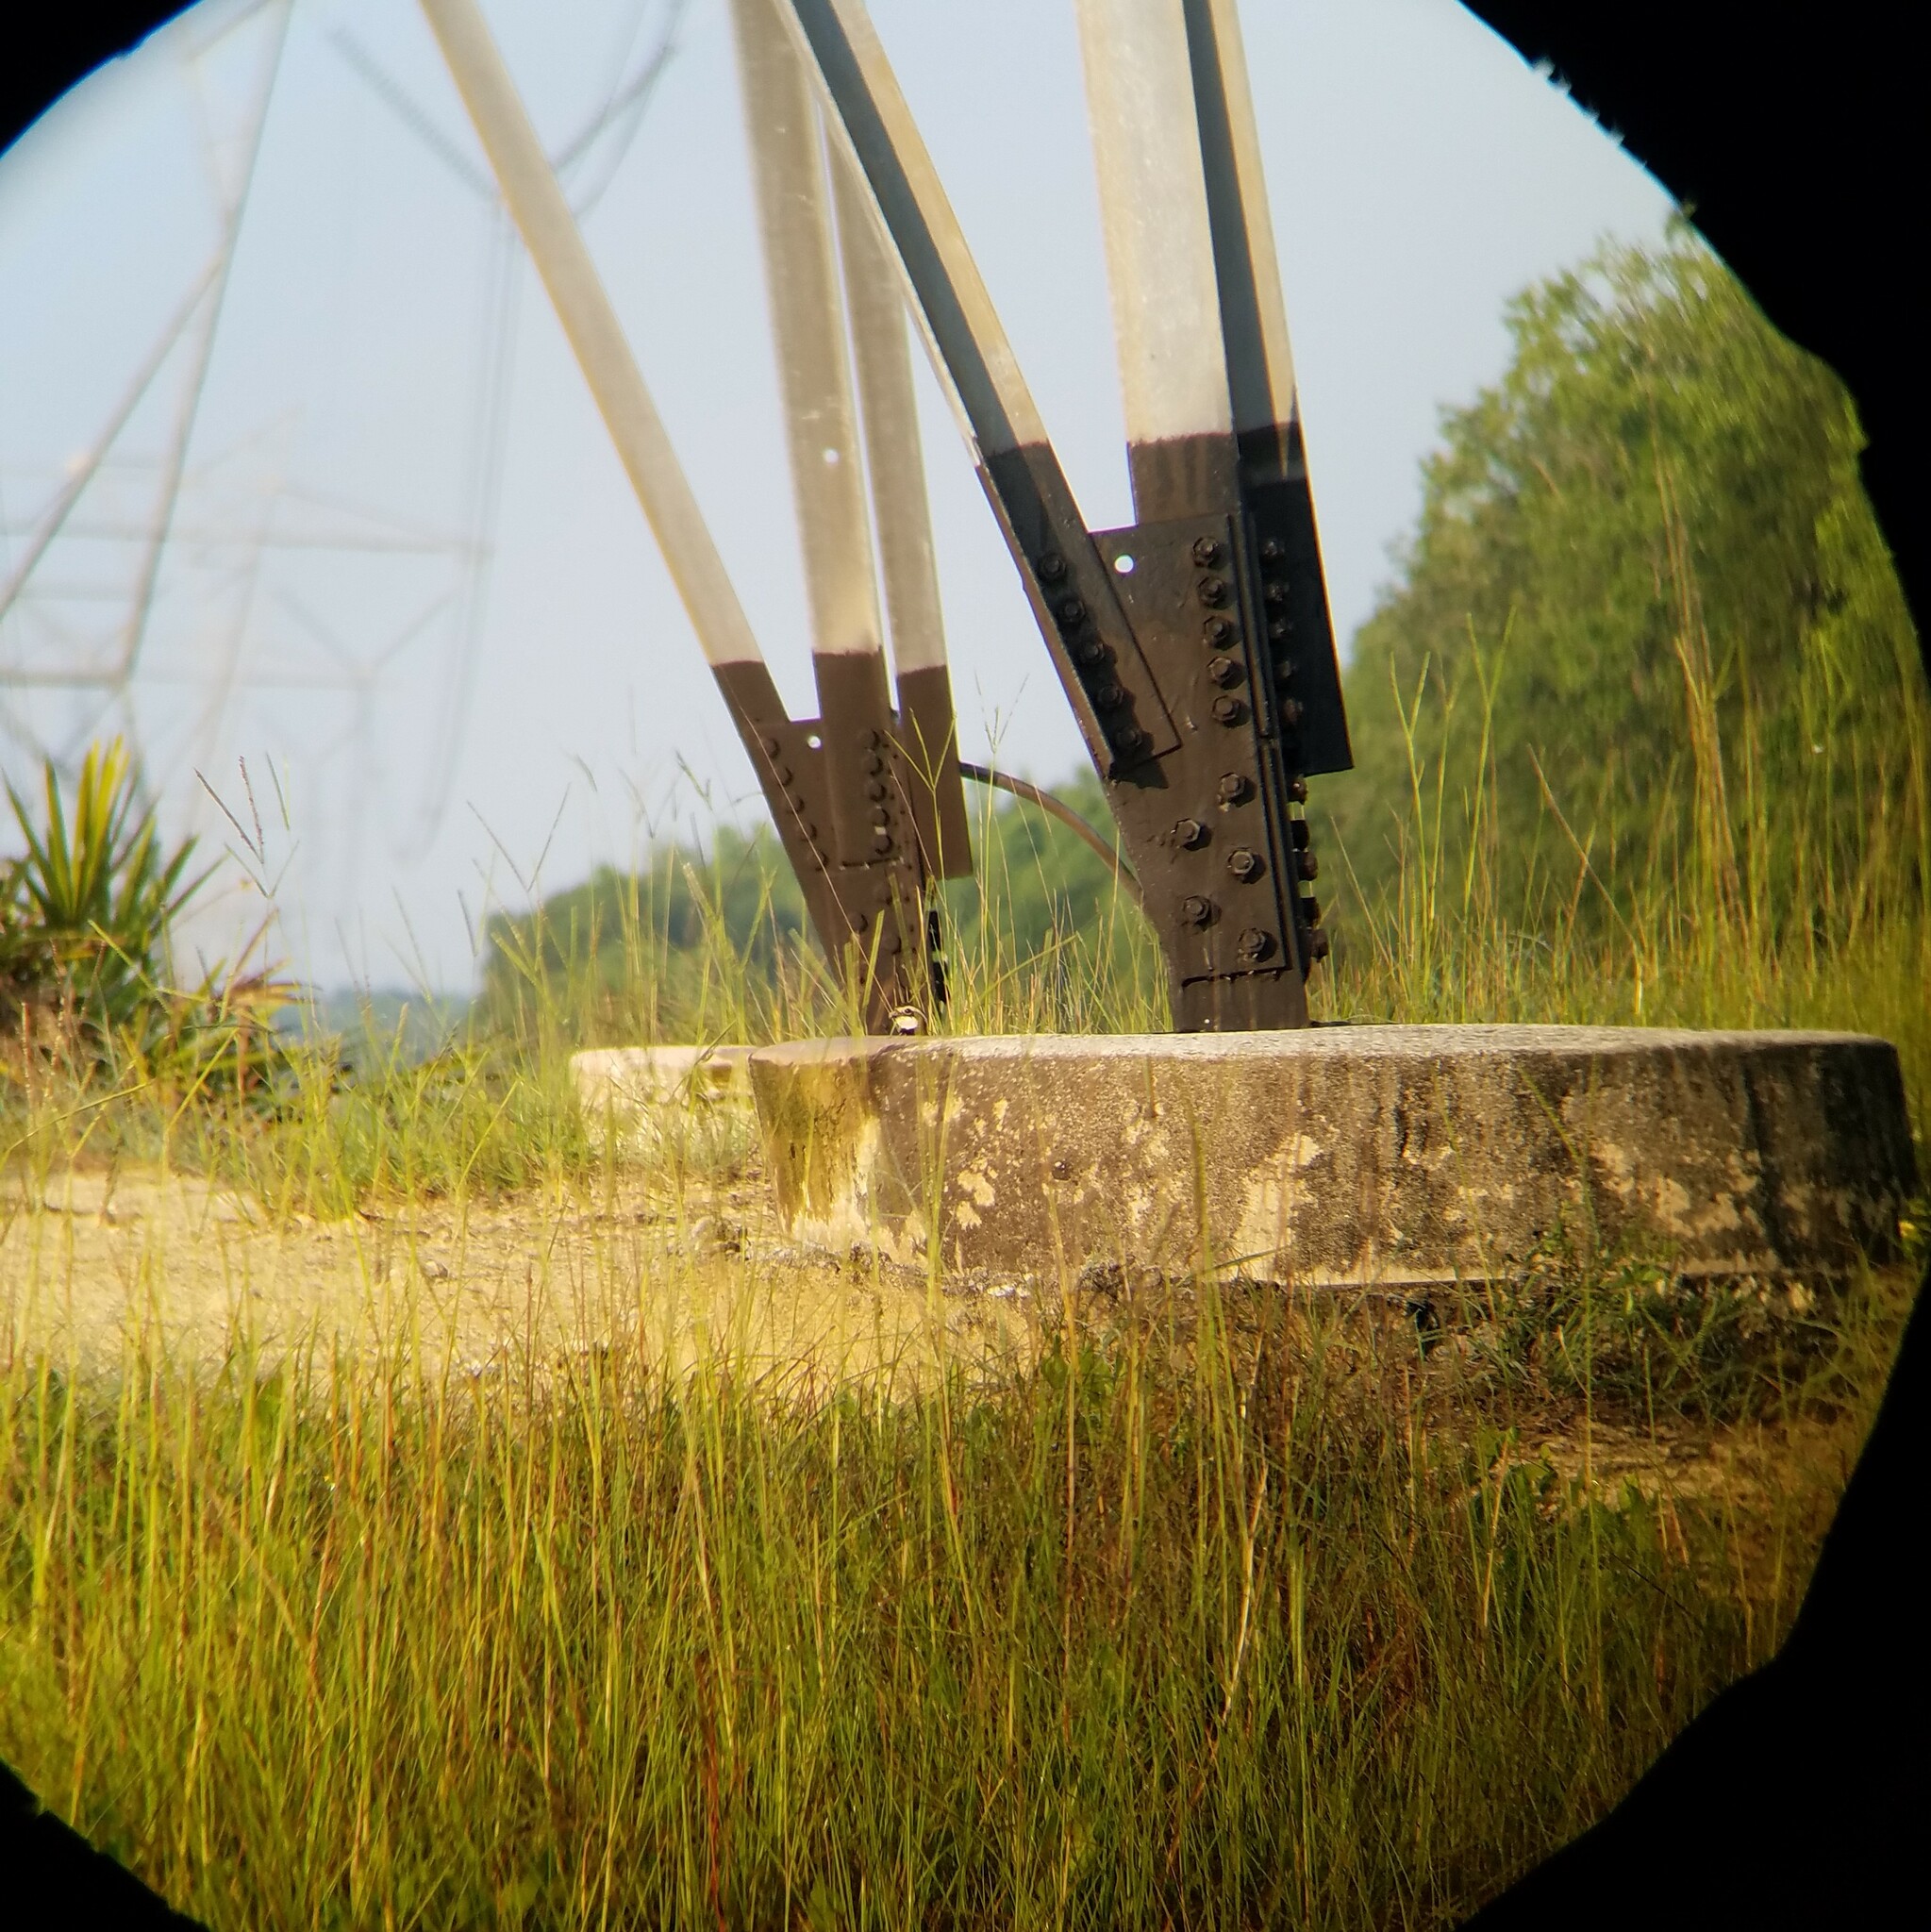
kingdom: Animalia
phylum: Chordata
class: Aves
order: Galliformes
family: Odontophoridae
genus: Colinus
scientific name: Colinus virginianus
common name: Northern bobwhite
